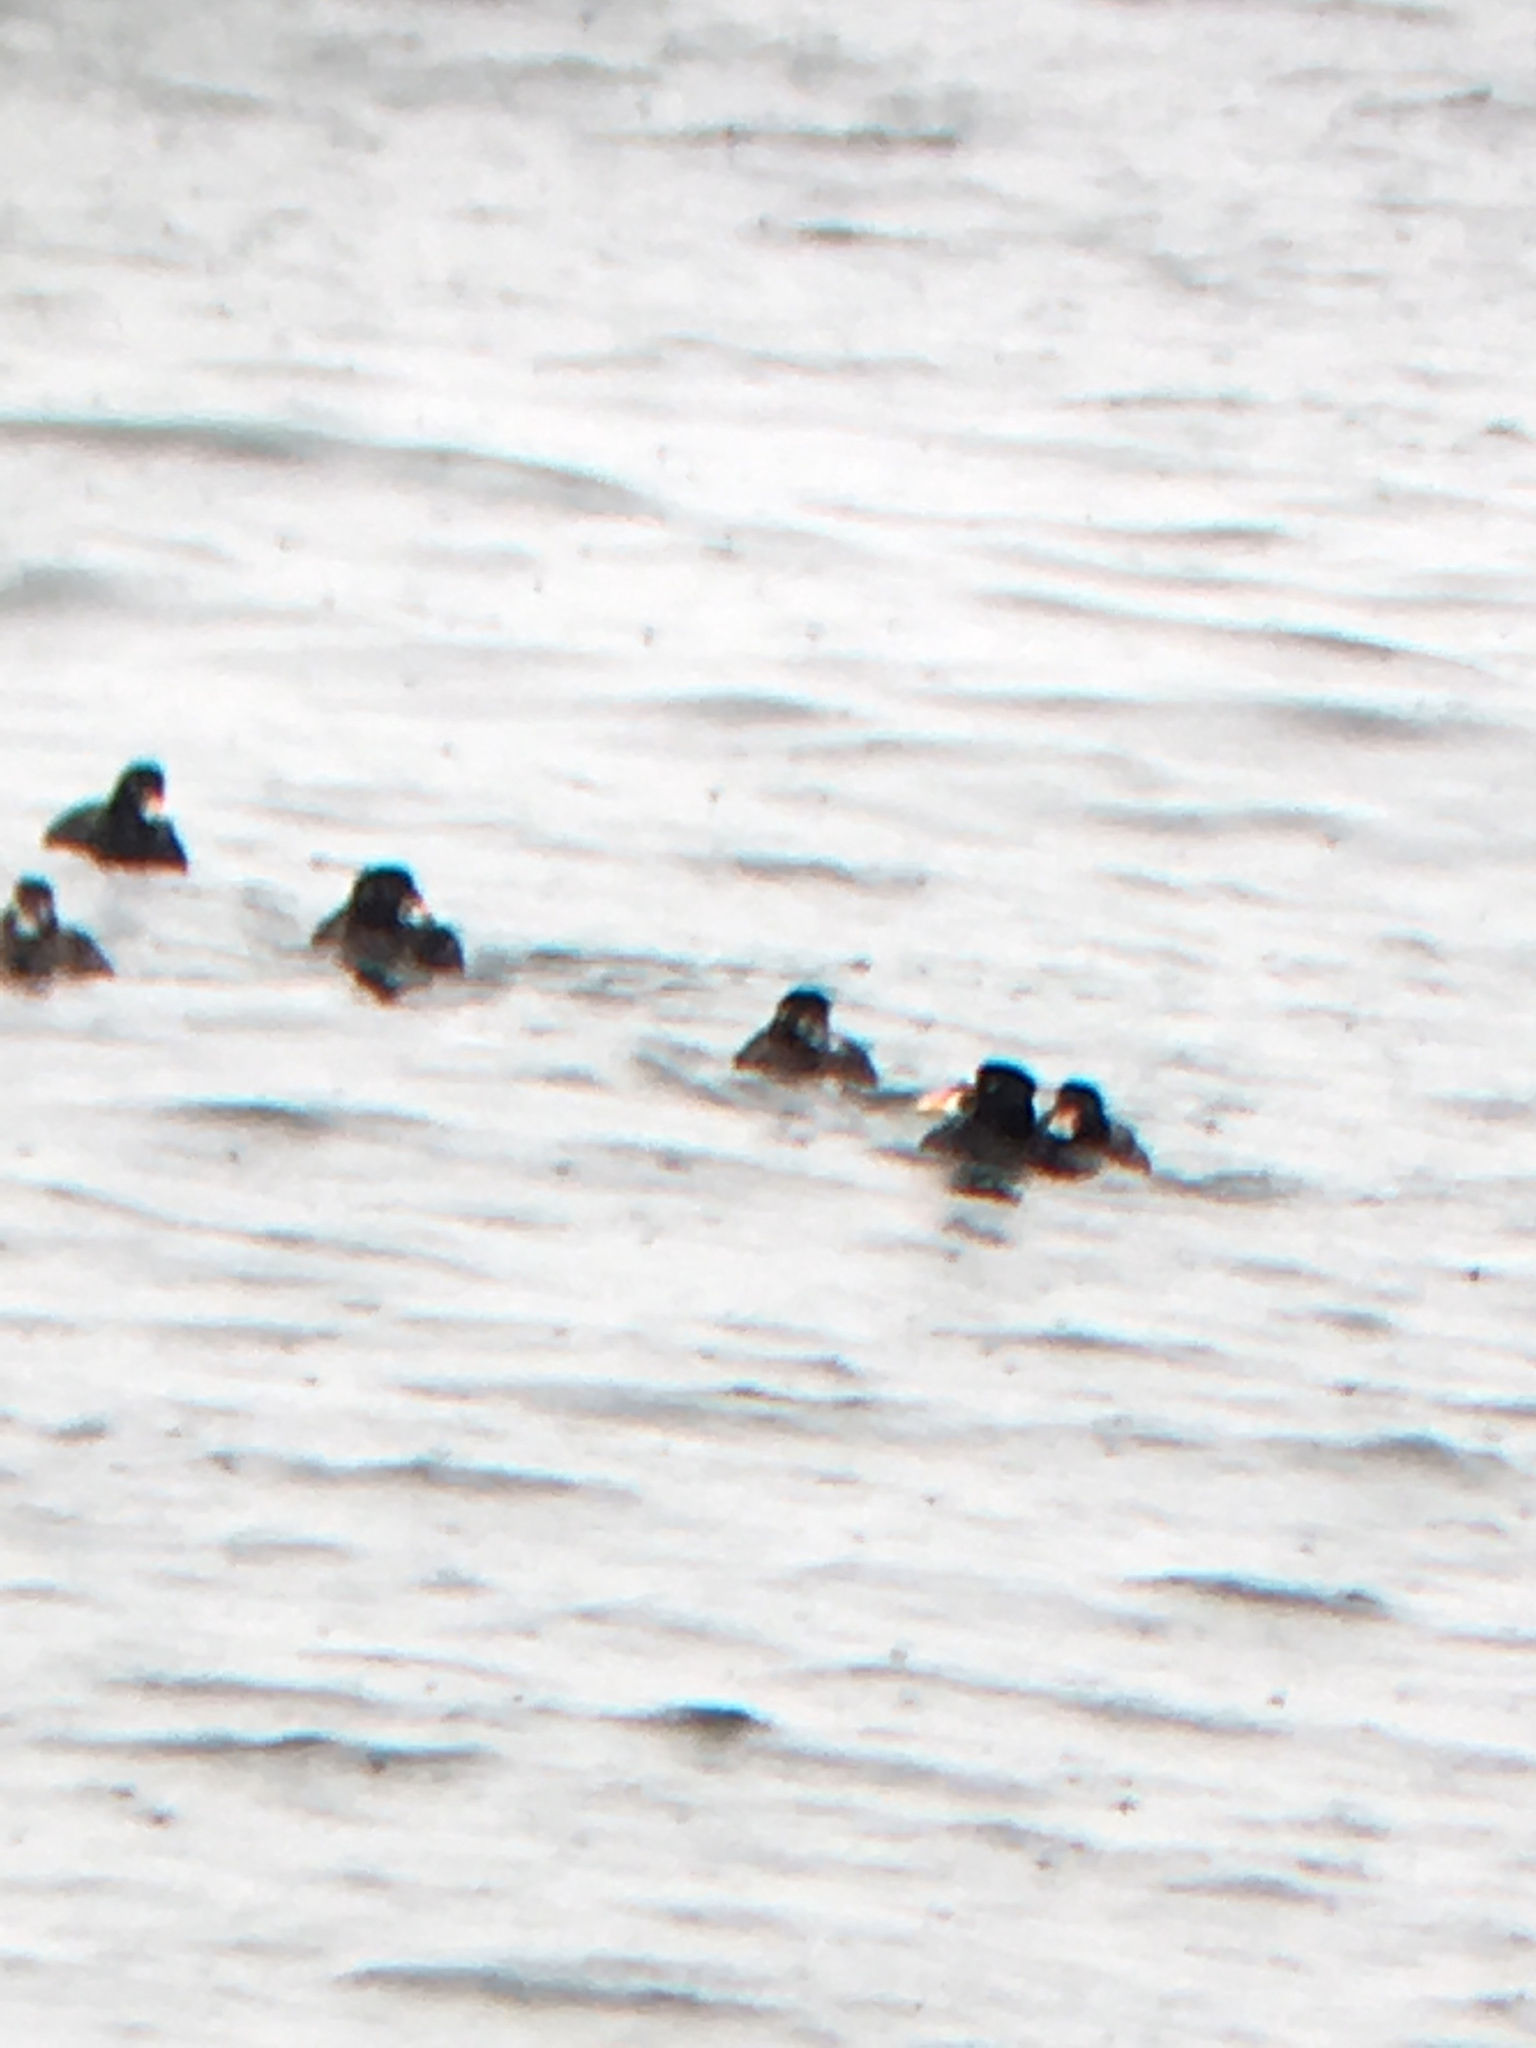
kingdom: Animalia
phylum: Chordata
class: Aves
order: Anseriformes
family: Anatidae
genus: Melanitta
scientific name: Melanitta perspicillata
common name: Surf scoter
